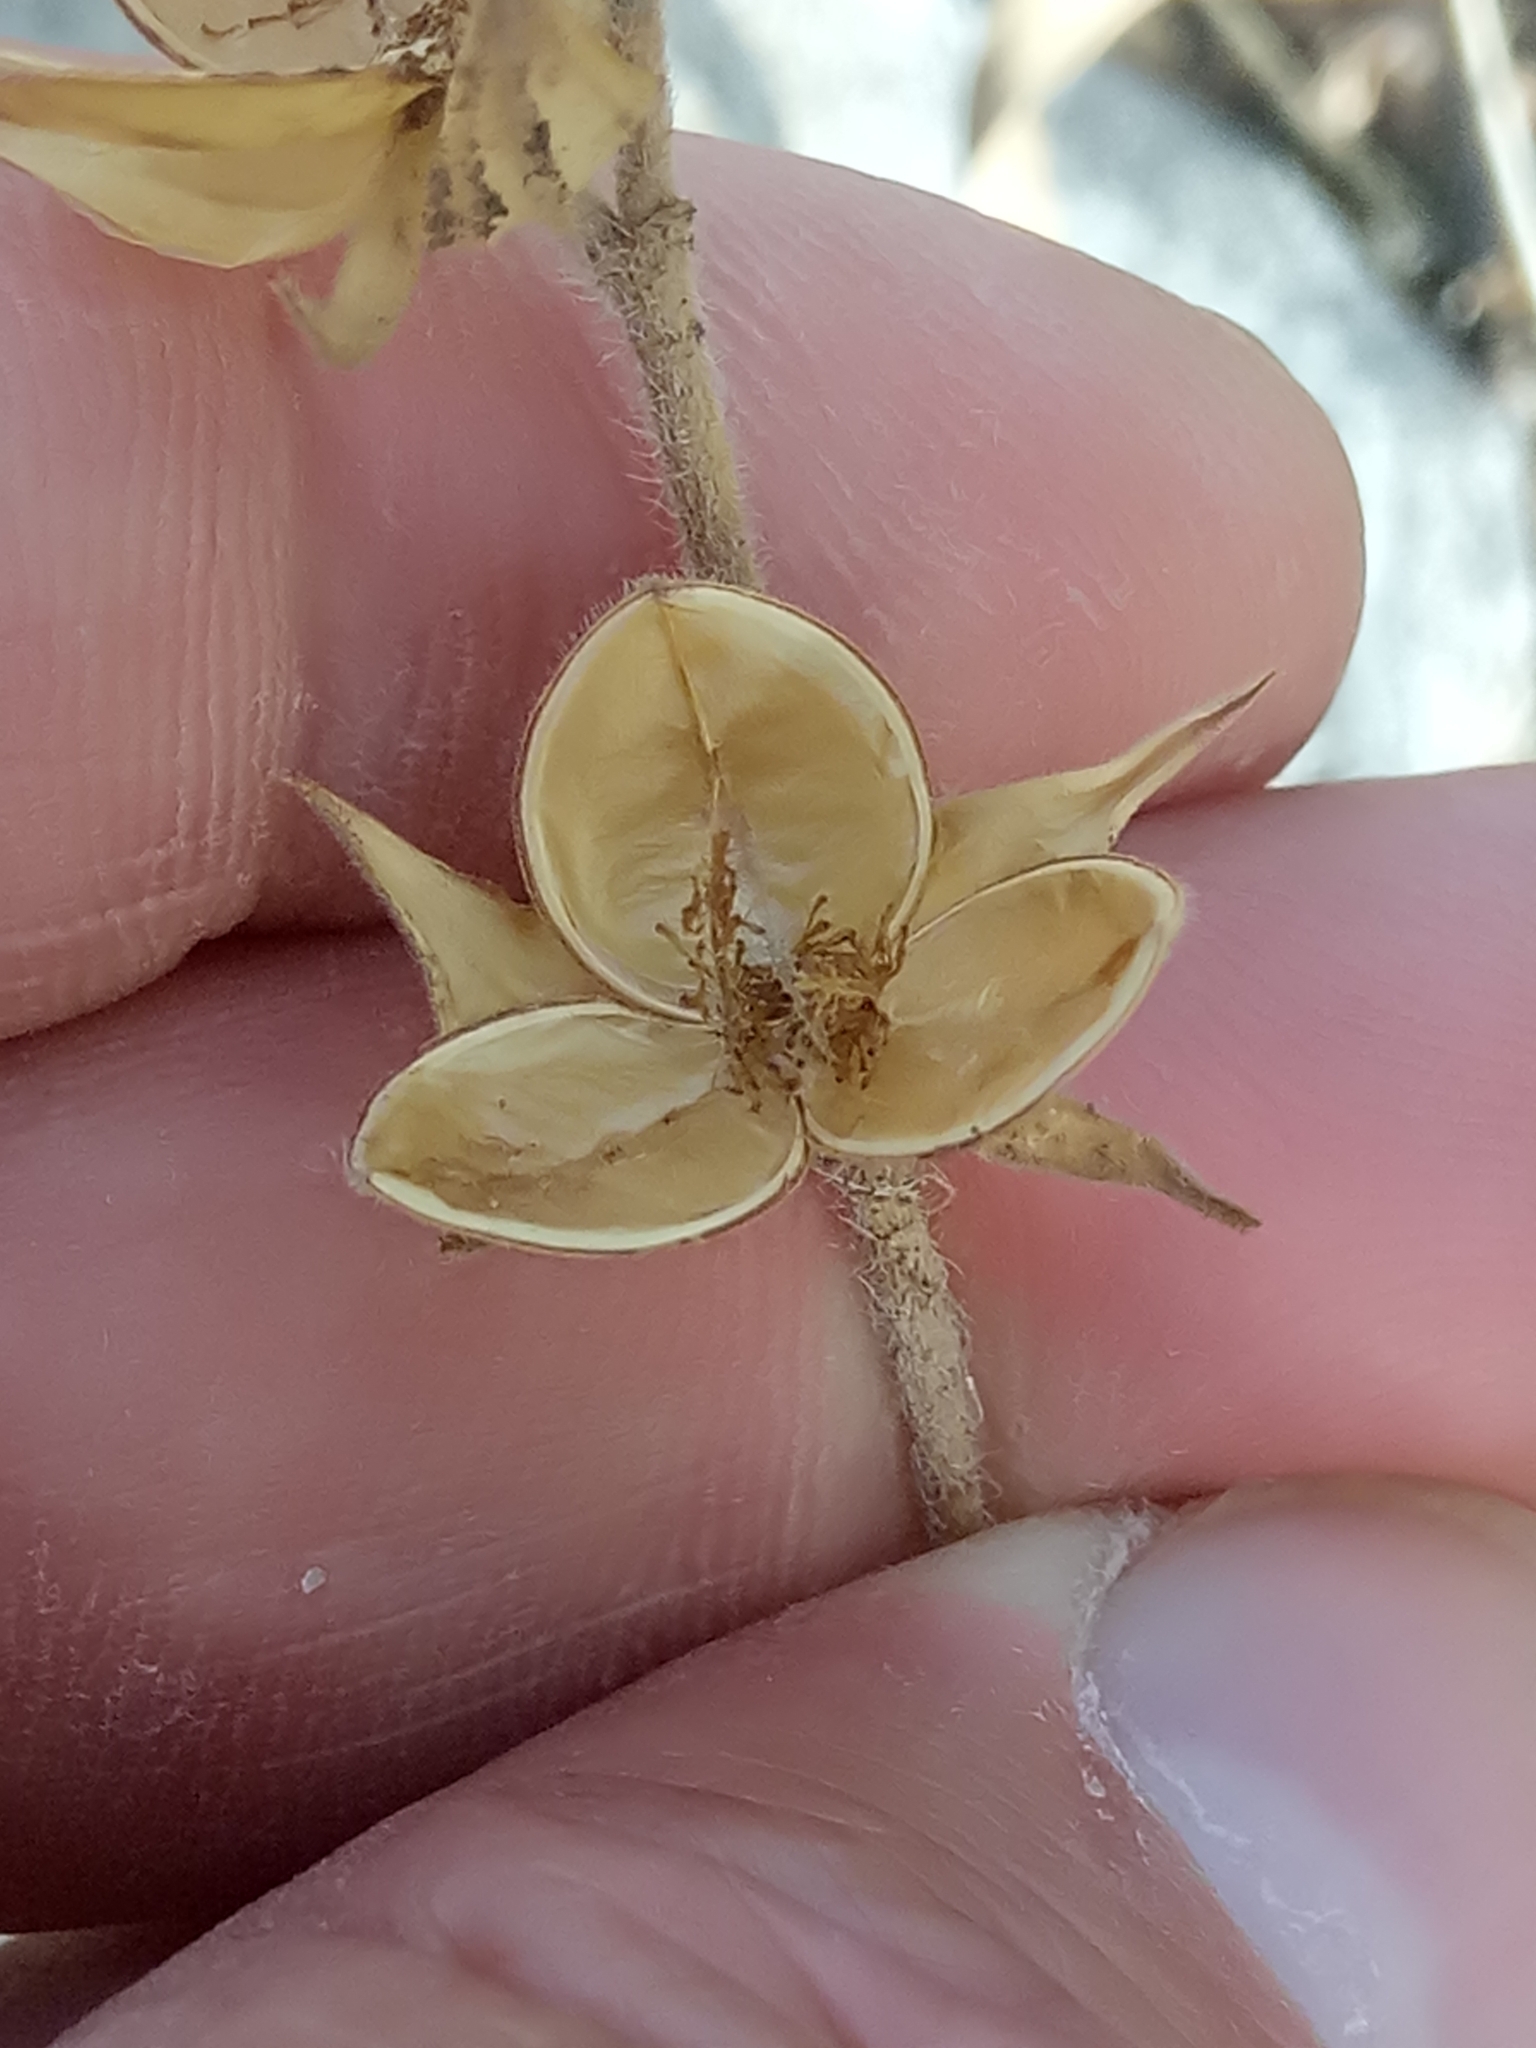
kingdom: Plantae
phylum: Tracheophyta
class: Magnoliopsida
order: Malvales
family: Cistaceae
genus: Helianthemum
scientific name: Helianthemum ledifolium
